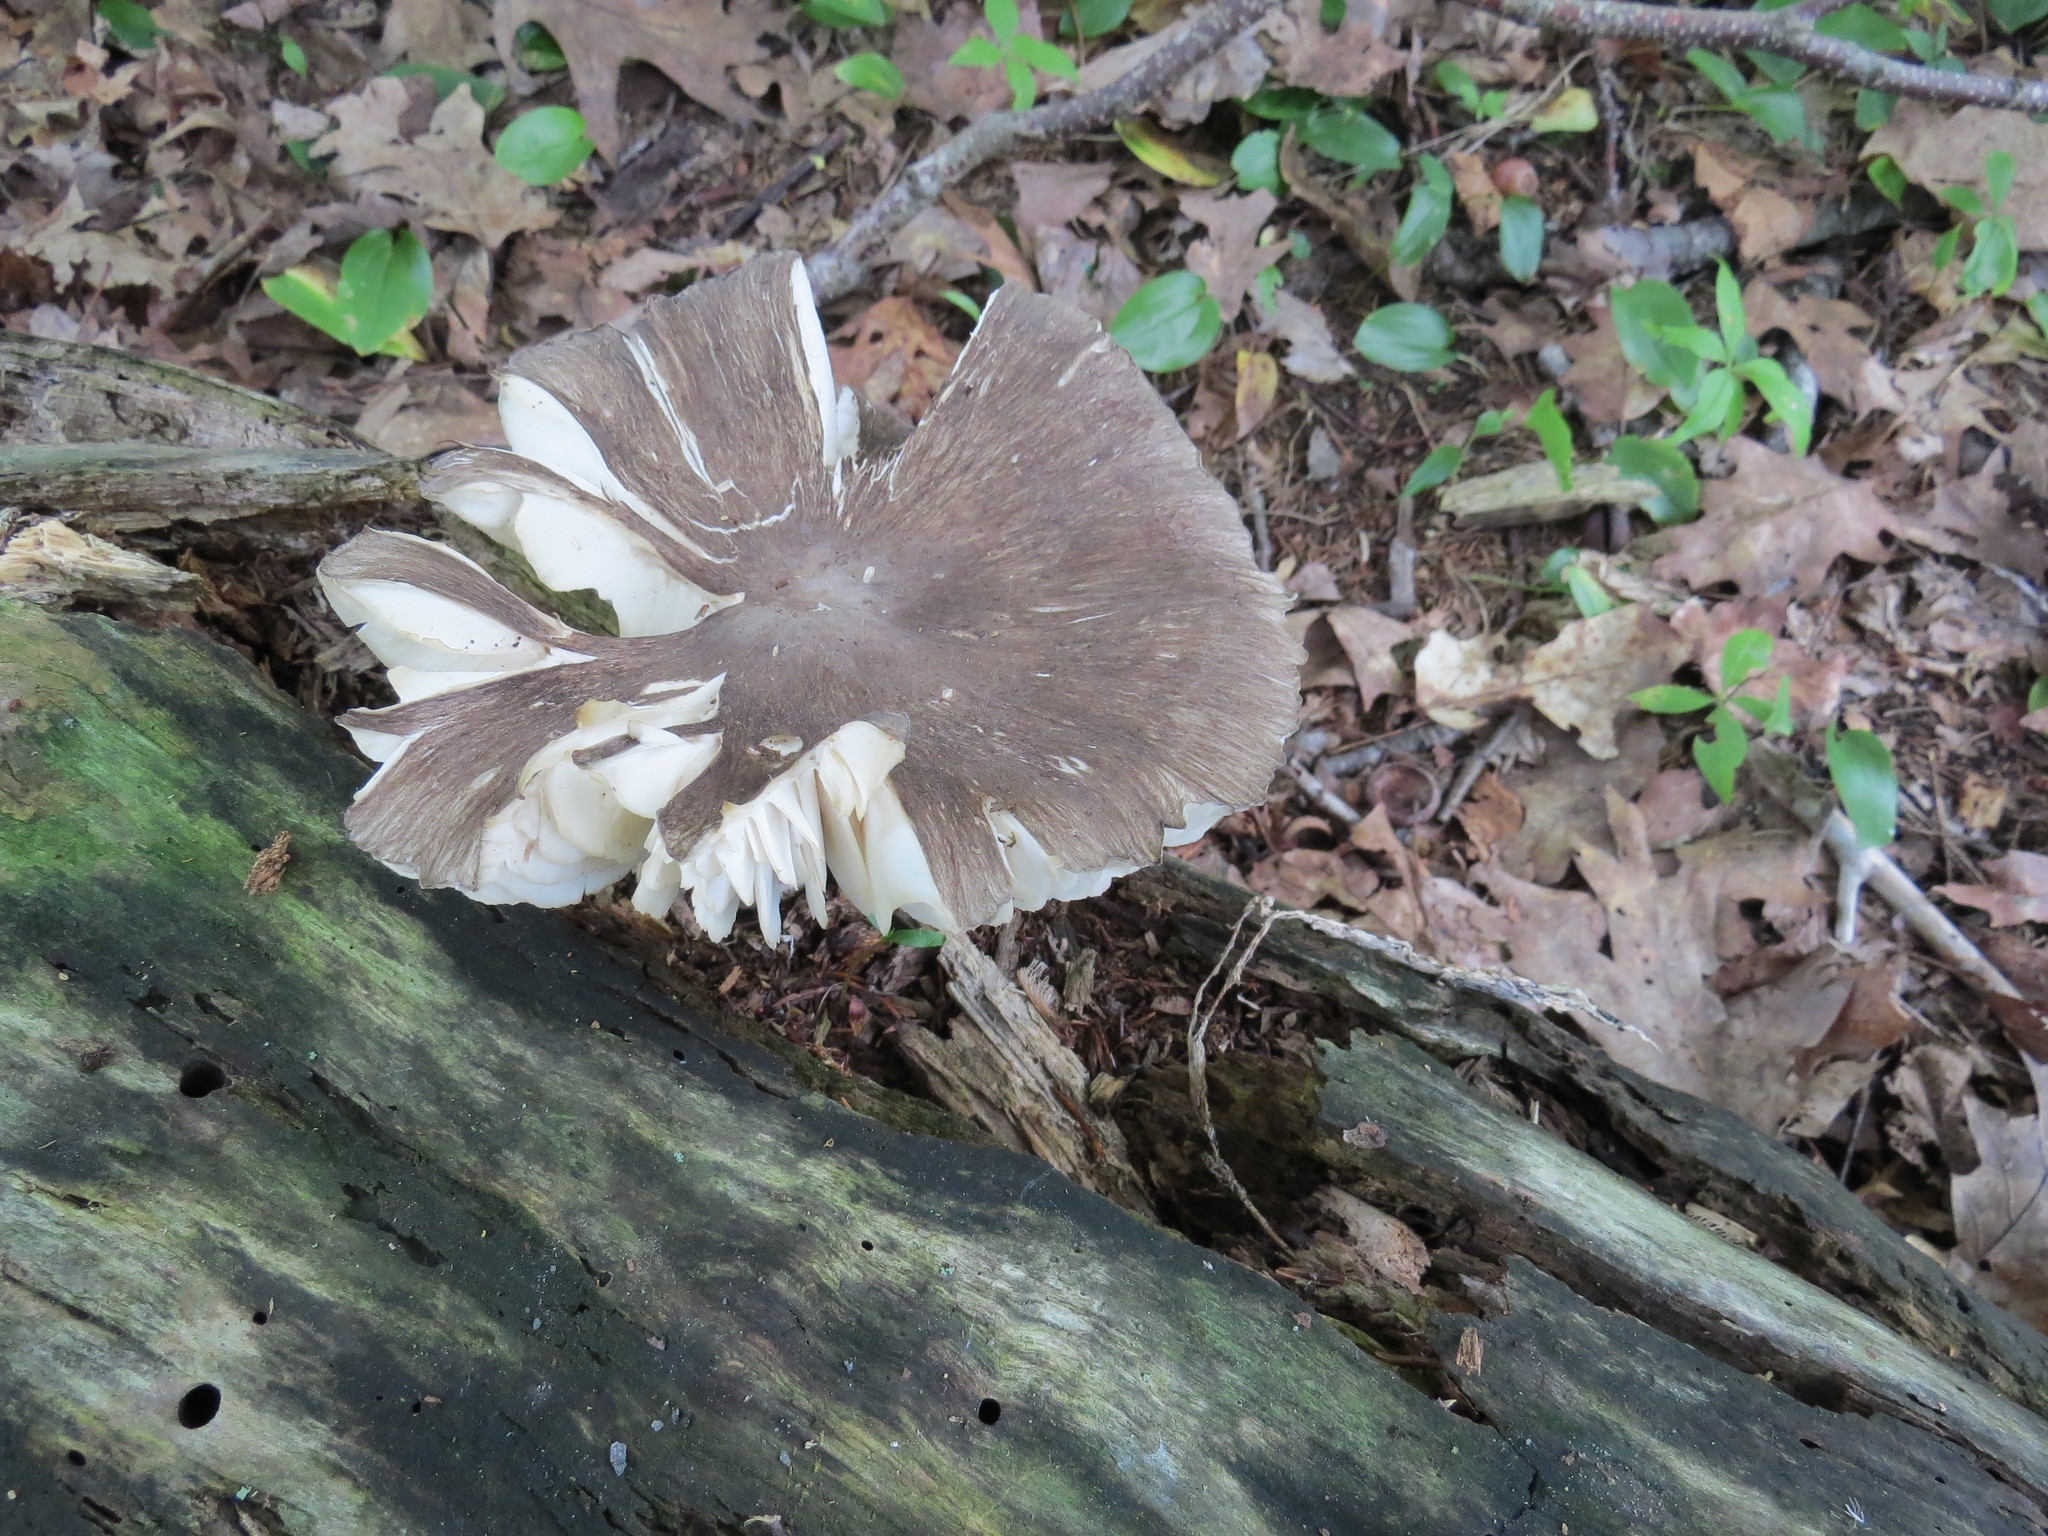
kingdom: Fungi
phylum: Basidiomycota
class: Agaricomycetes
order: Agaricales
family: Tricholomataceae
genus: Megacollybia
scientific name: Megacollybia rodmanii
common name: Eastern american platterful mushroom
